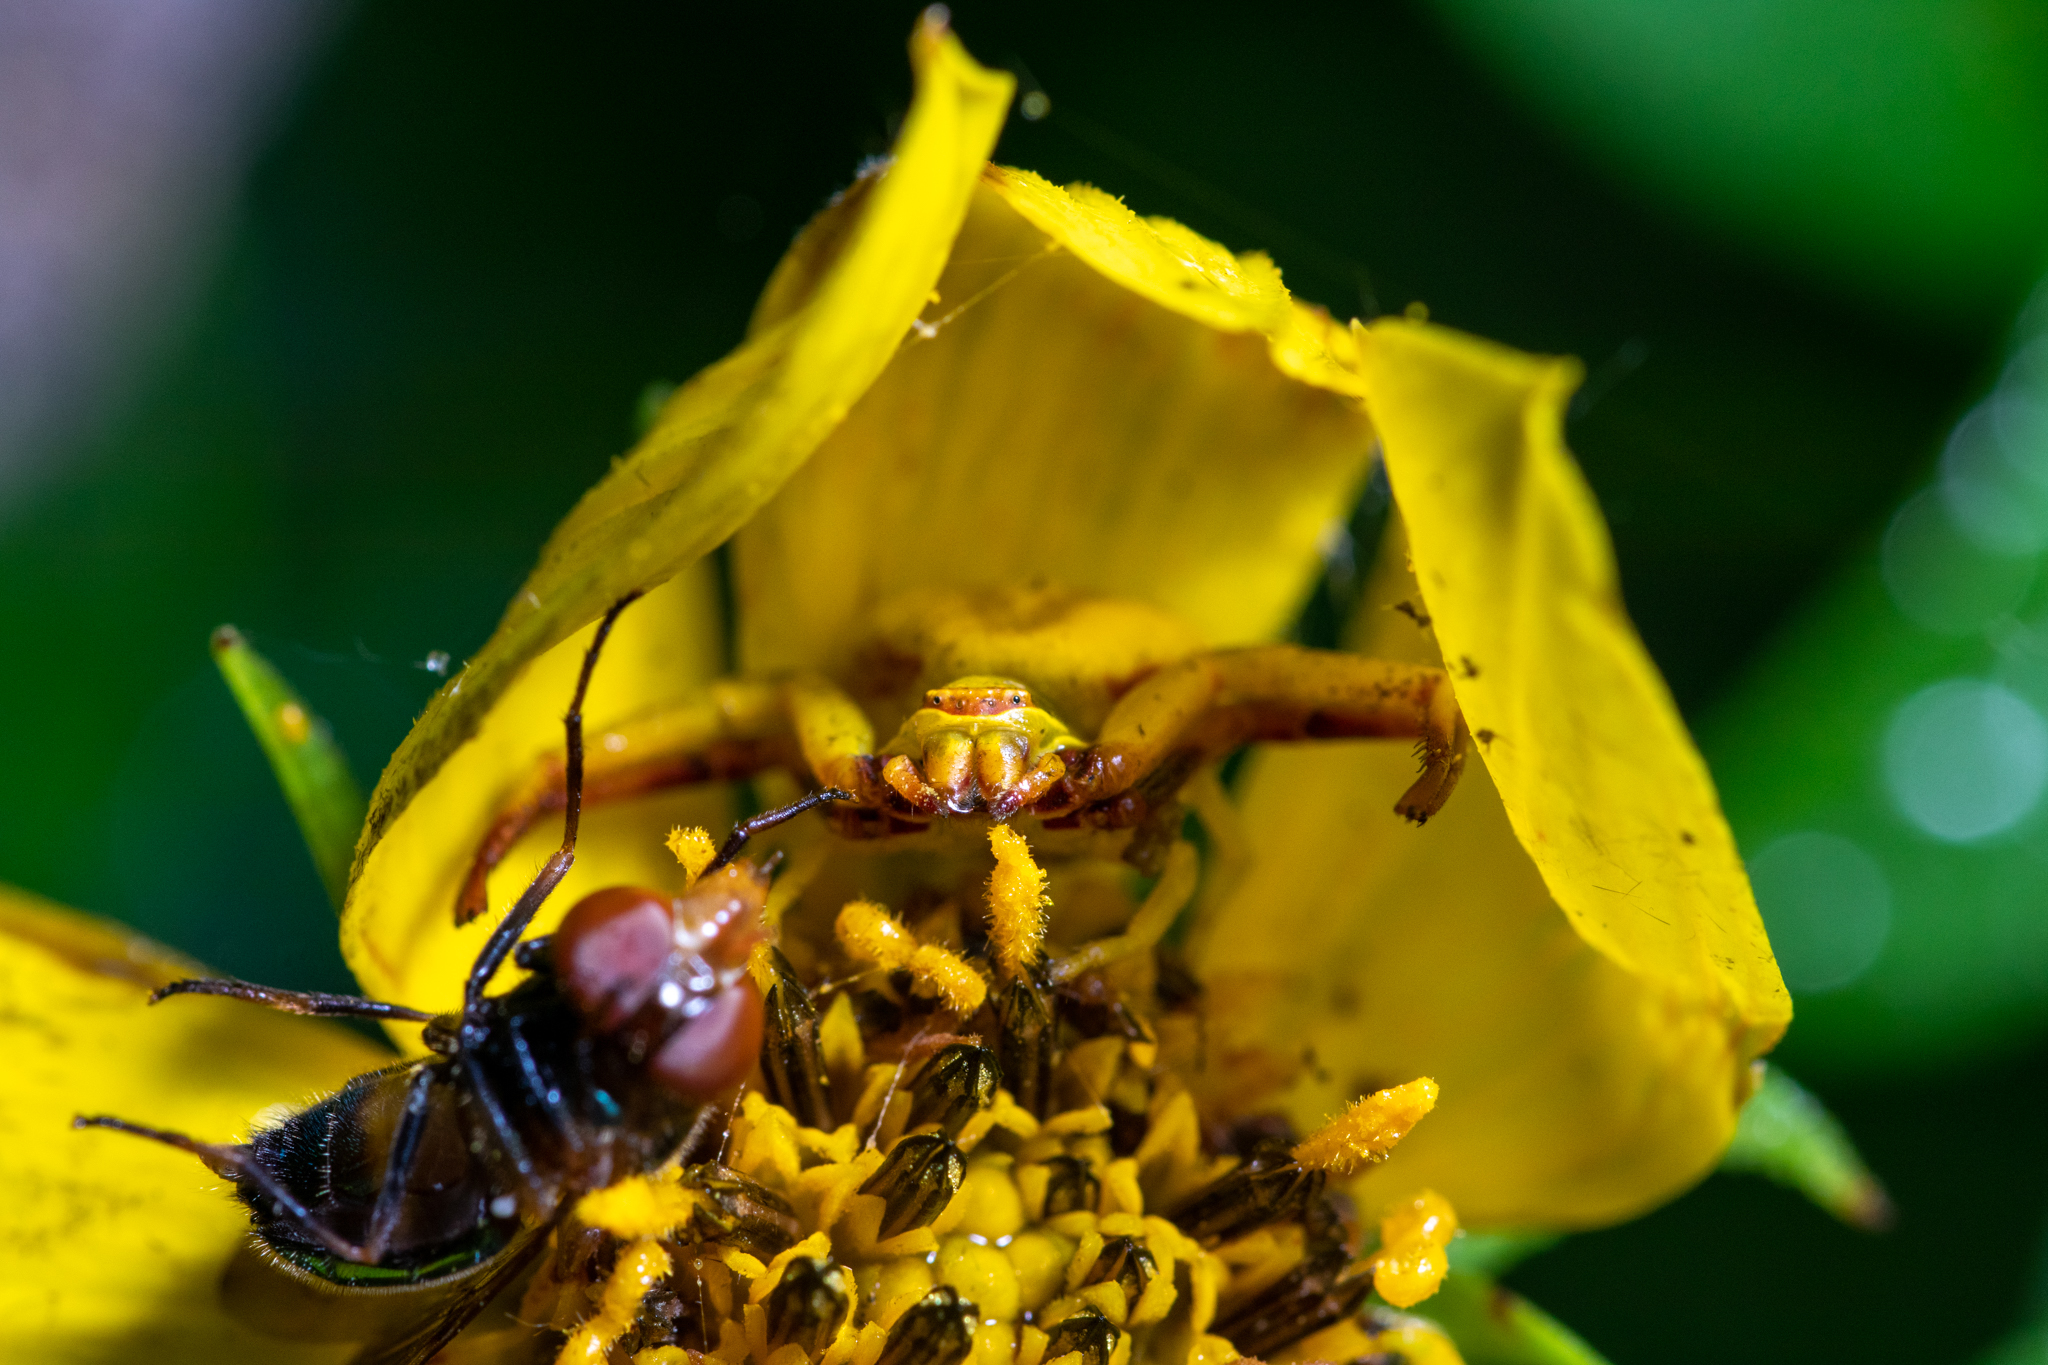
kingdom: Animalia
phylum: Arthropoda
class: Arachnida
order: Araneae
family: Thomisidae
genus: Misumenoides
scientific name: Misumenoides formosipes
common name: White-banded crab spider
